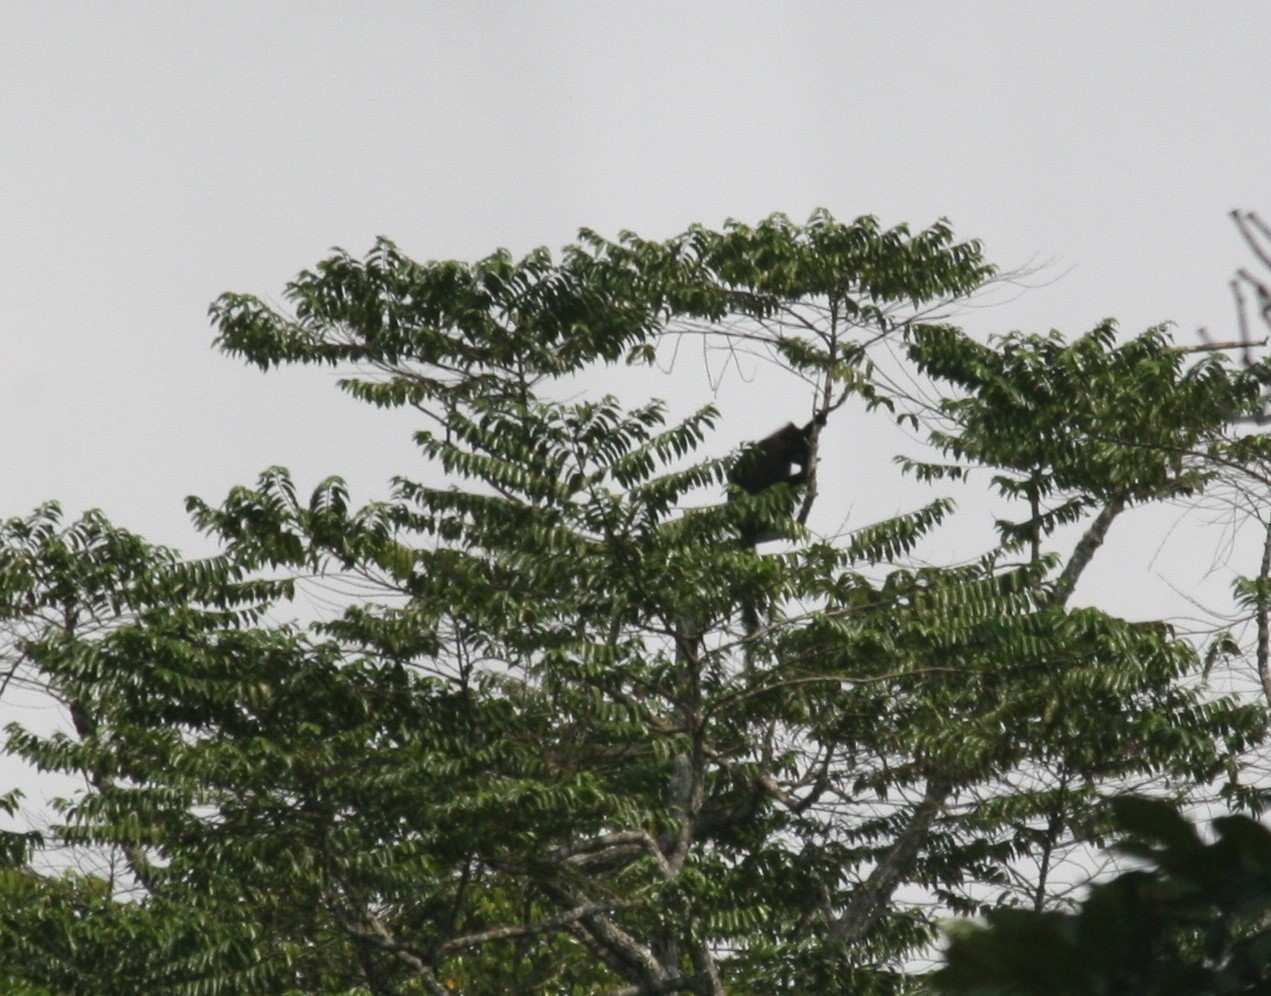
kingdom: Animalia
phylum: Chordata
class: Mammalia
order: Primates
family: Cercopithecidae
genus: Colobus
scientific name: Colobus satanas
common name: Black colobus
